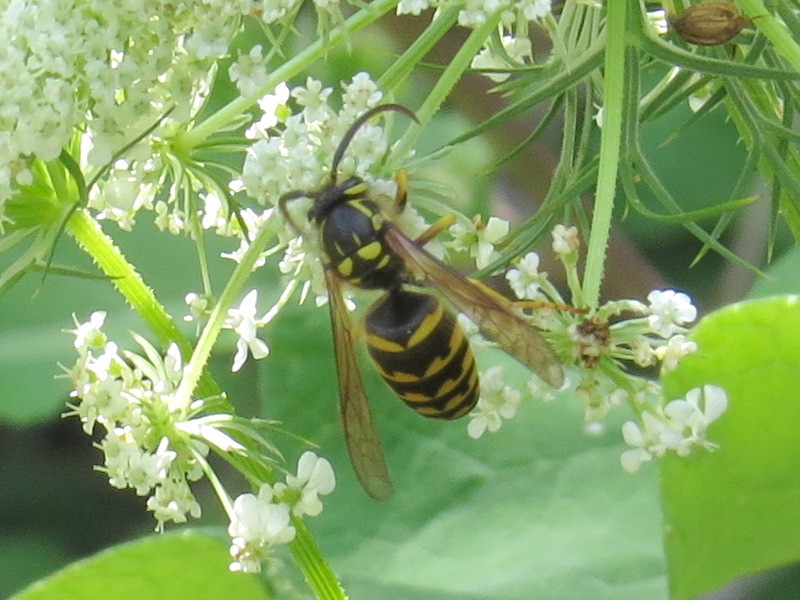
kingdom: Animalia
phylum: Arthropoda
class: Insecta
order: Hymenoptera
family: Vespidae
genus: Dolichovespula
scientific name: Dolichovespula arenaria
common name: Aerial yellowjacket
